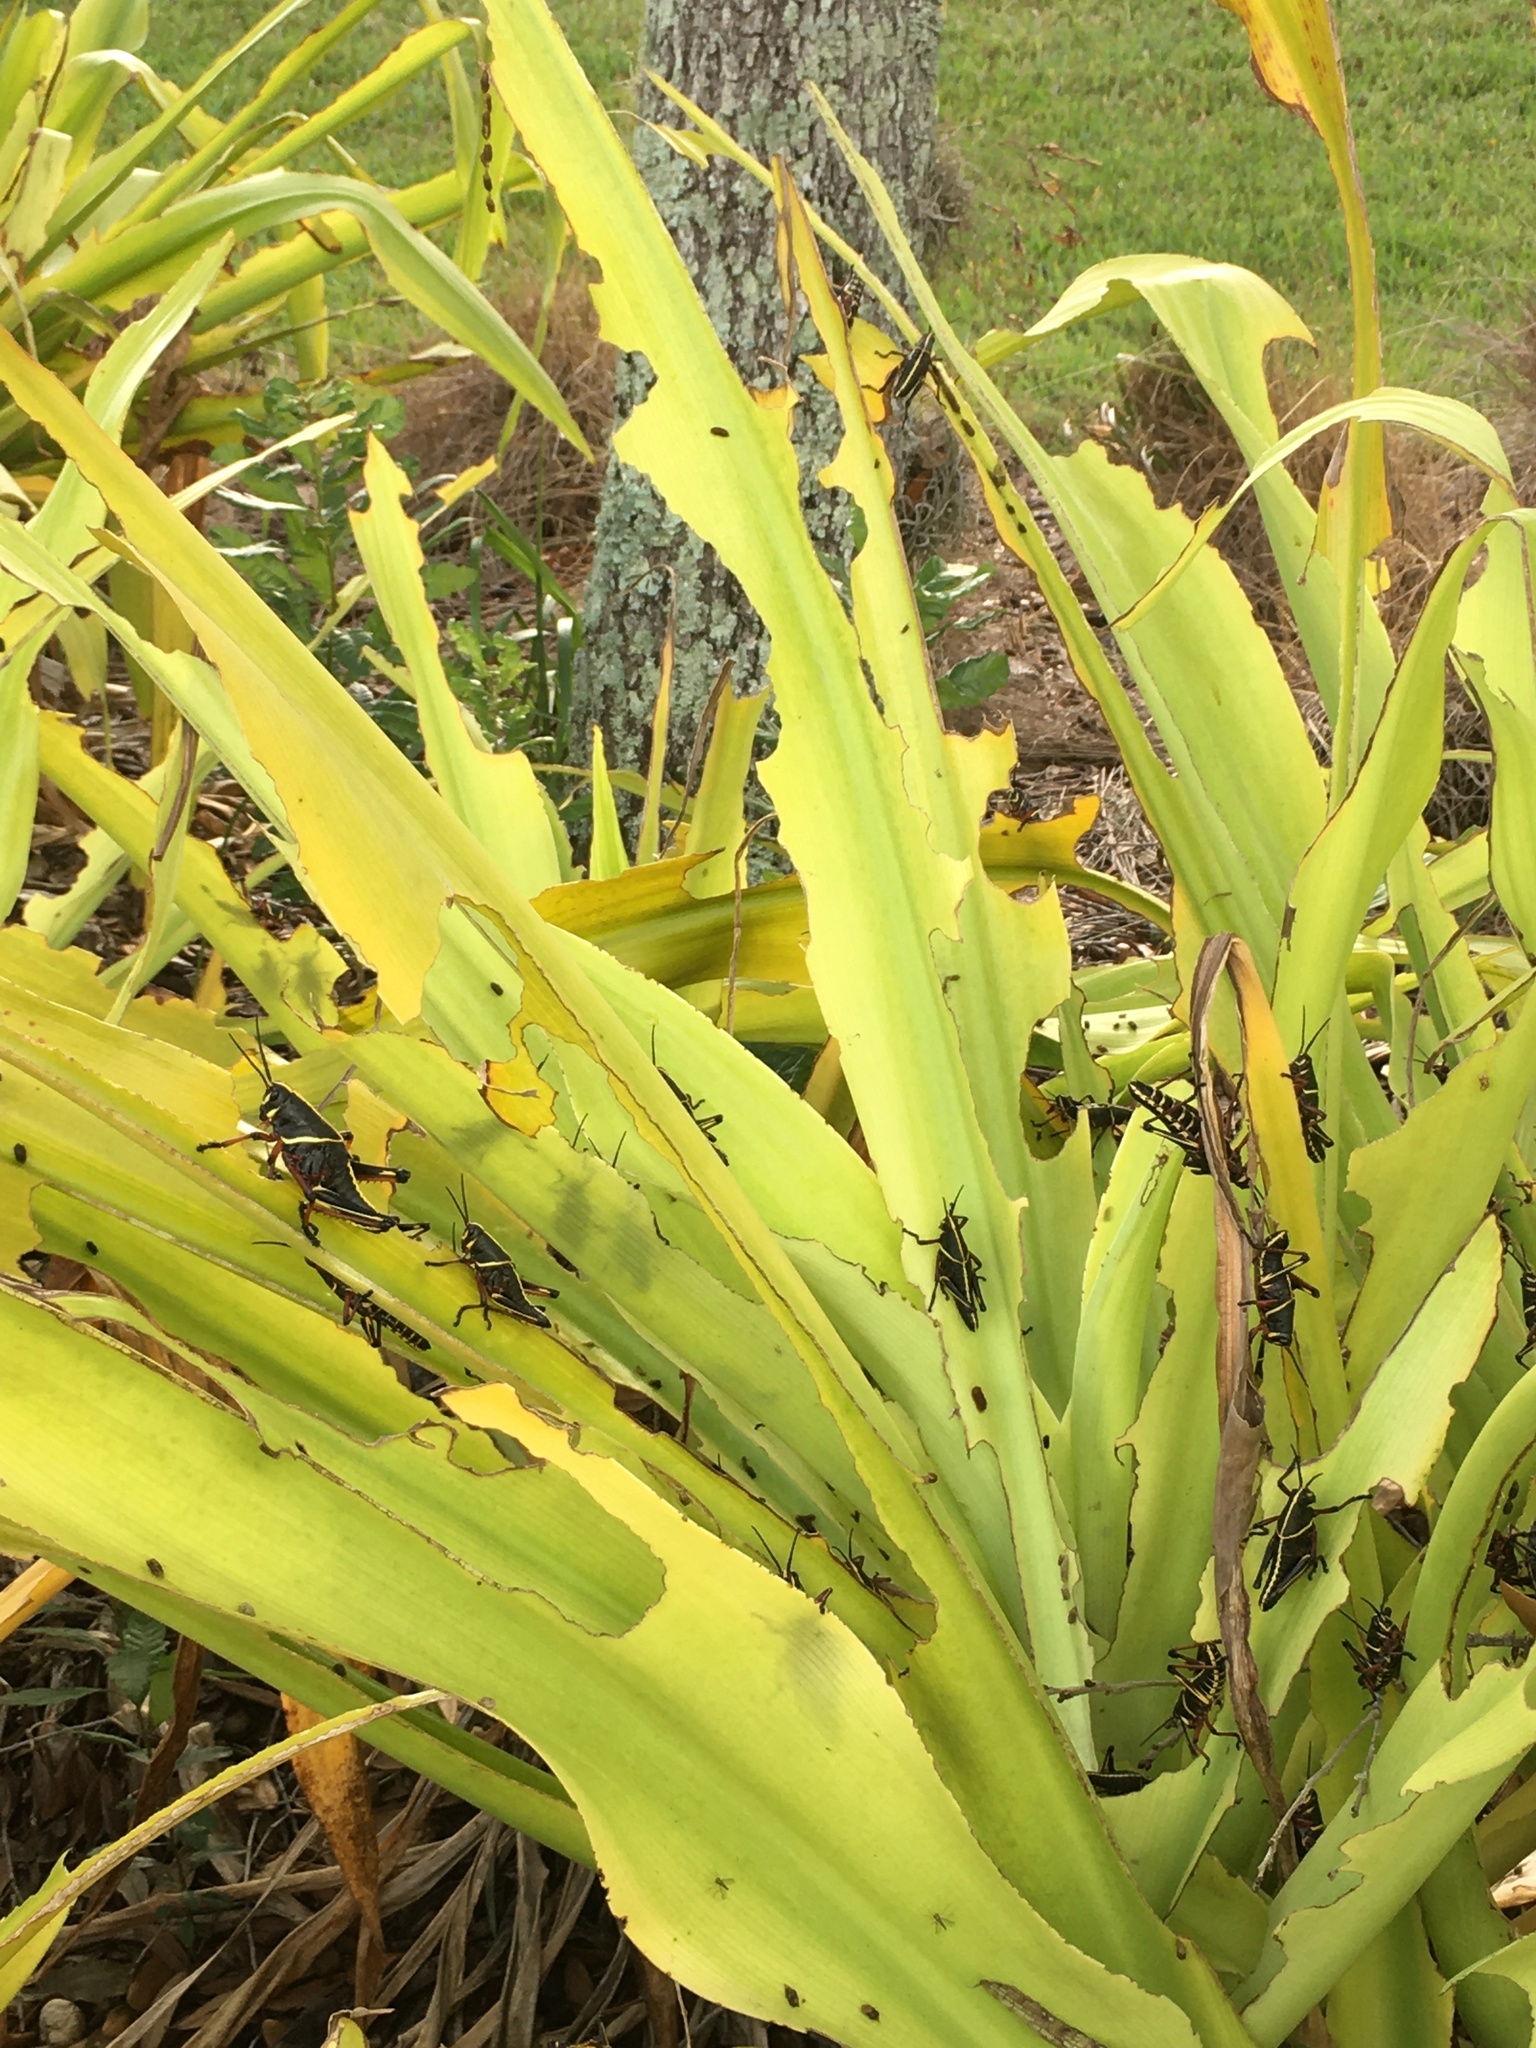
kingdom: Animalia
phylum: Arthropoda
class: Insecta
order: Orthoptera
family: Romaleidae
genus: Romalea
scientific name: Romalea microptera
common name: Eastern lubber grasshopper
